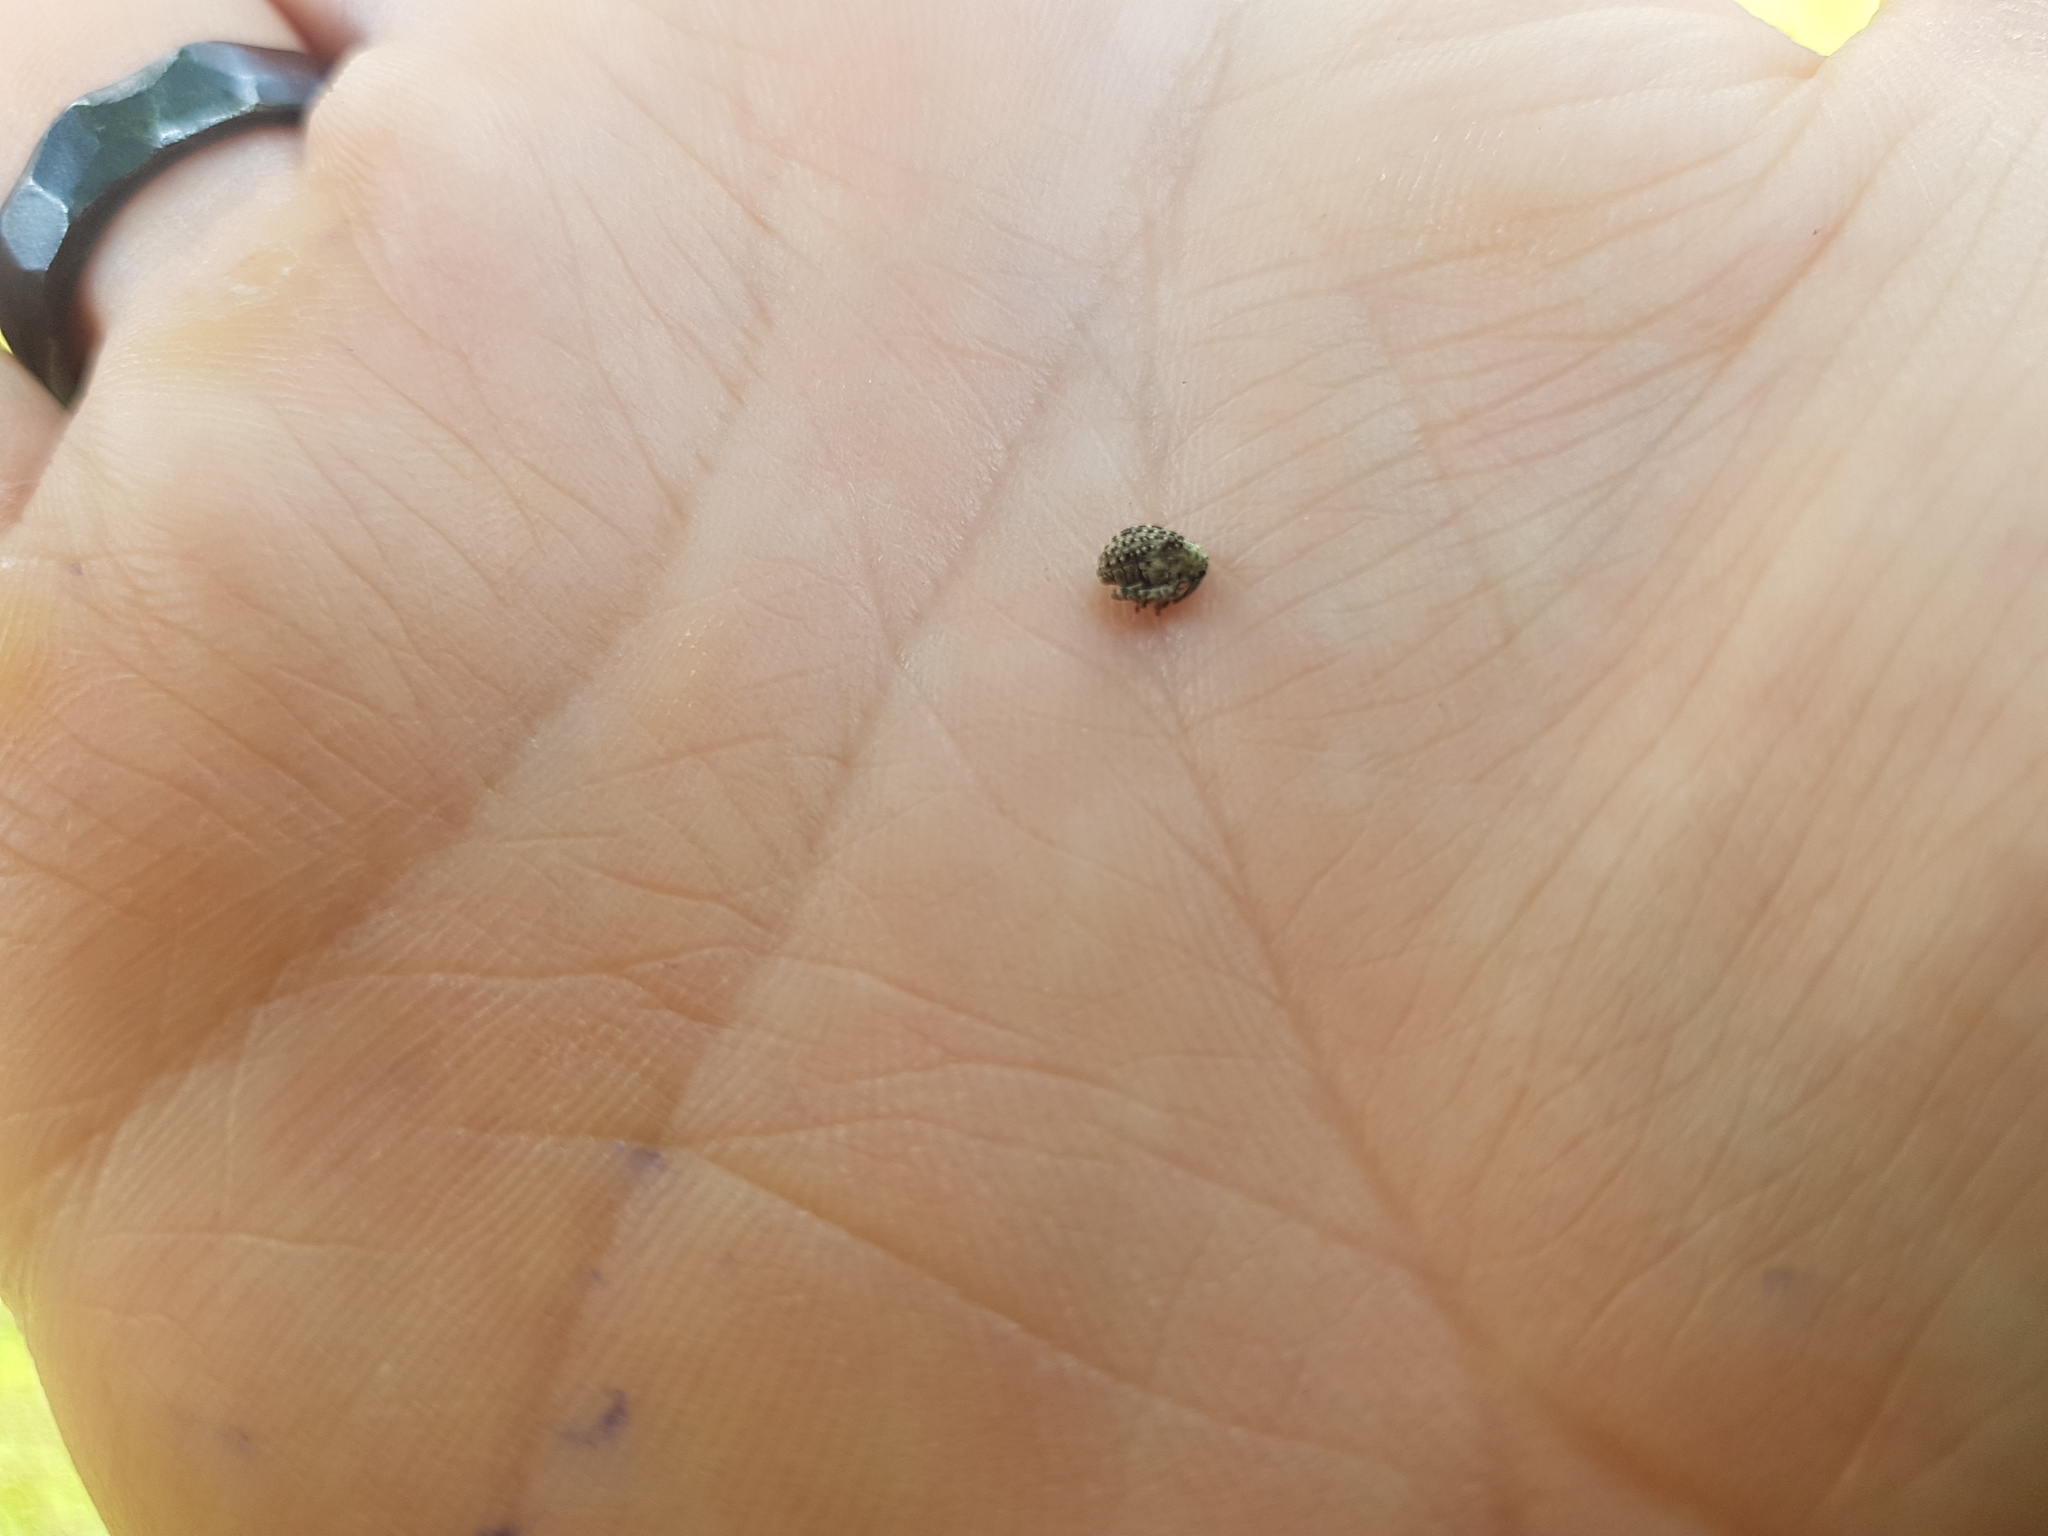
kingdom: Animalia
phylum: Arthropoda
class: Insecta
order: Coleoptera
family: Curculionidae
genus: Cionus
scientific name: Cionus scrophulariae
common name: Common figwort weevil
